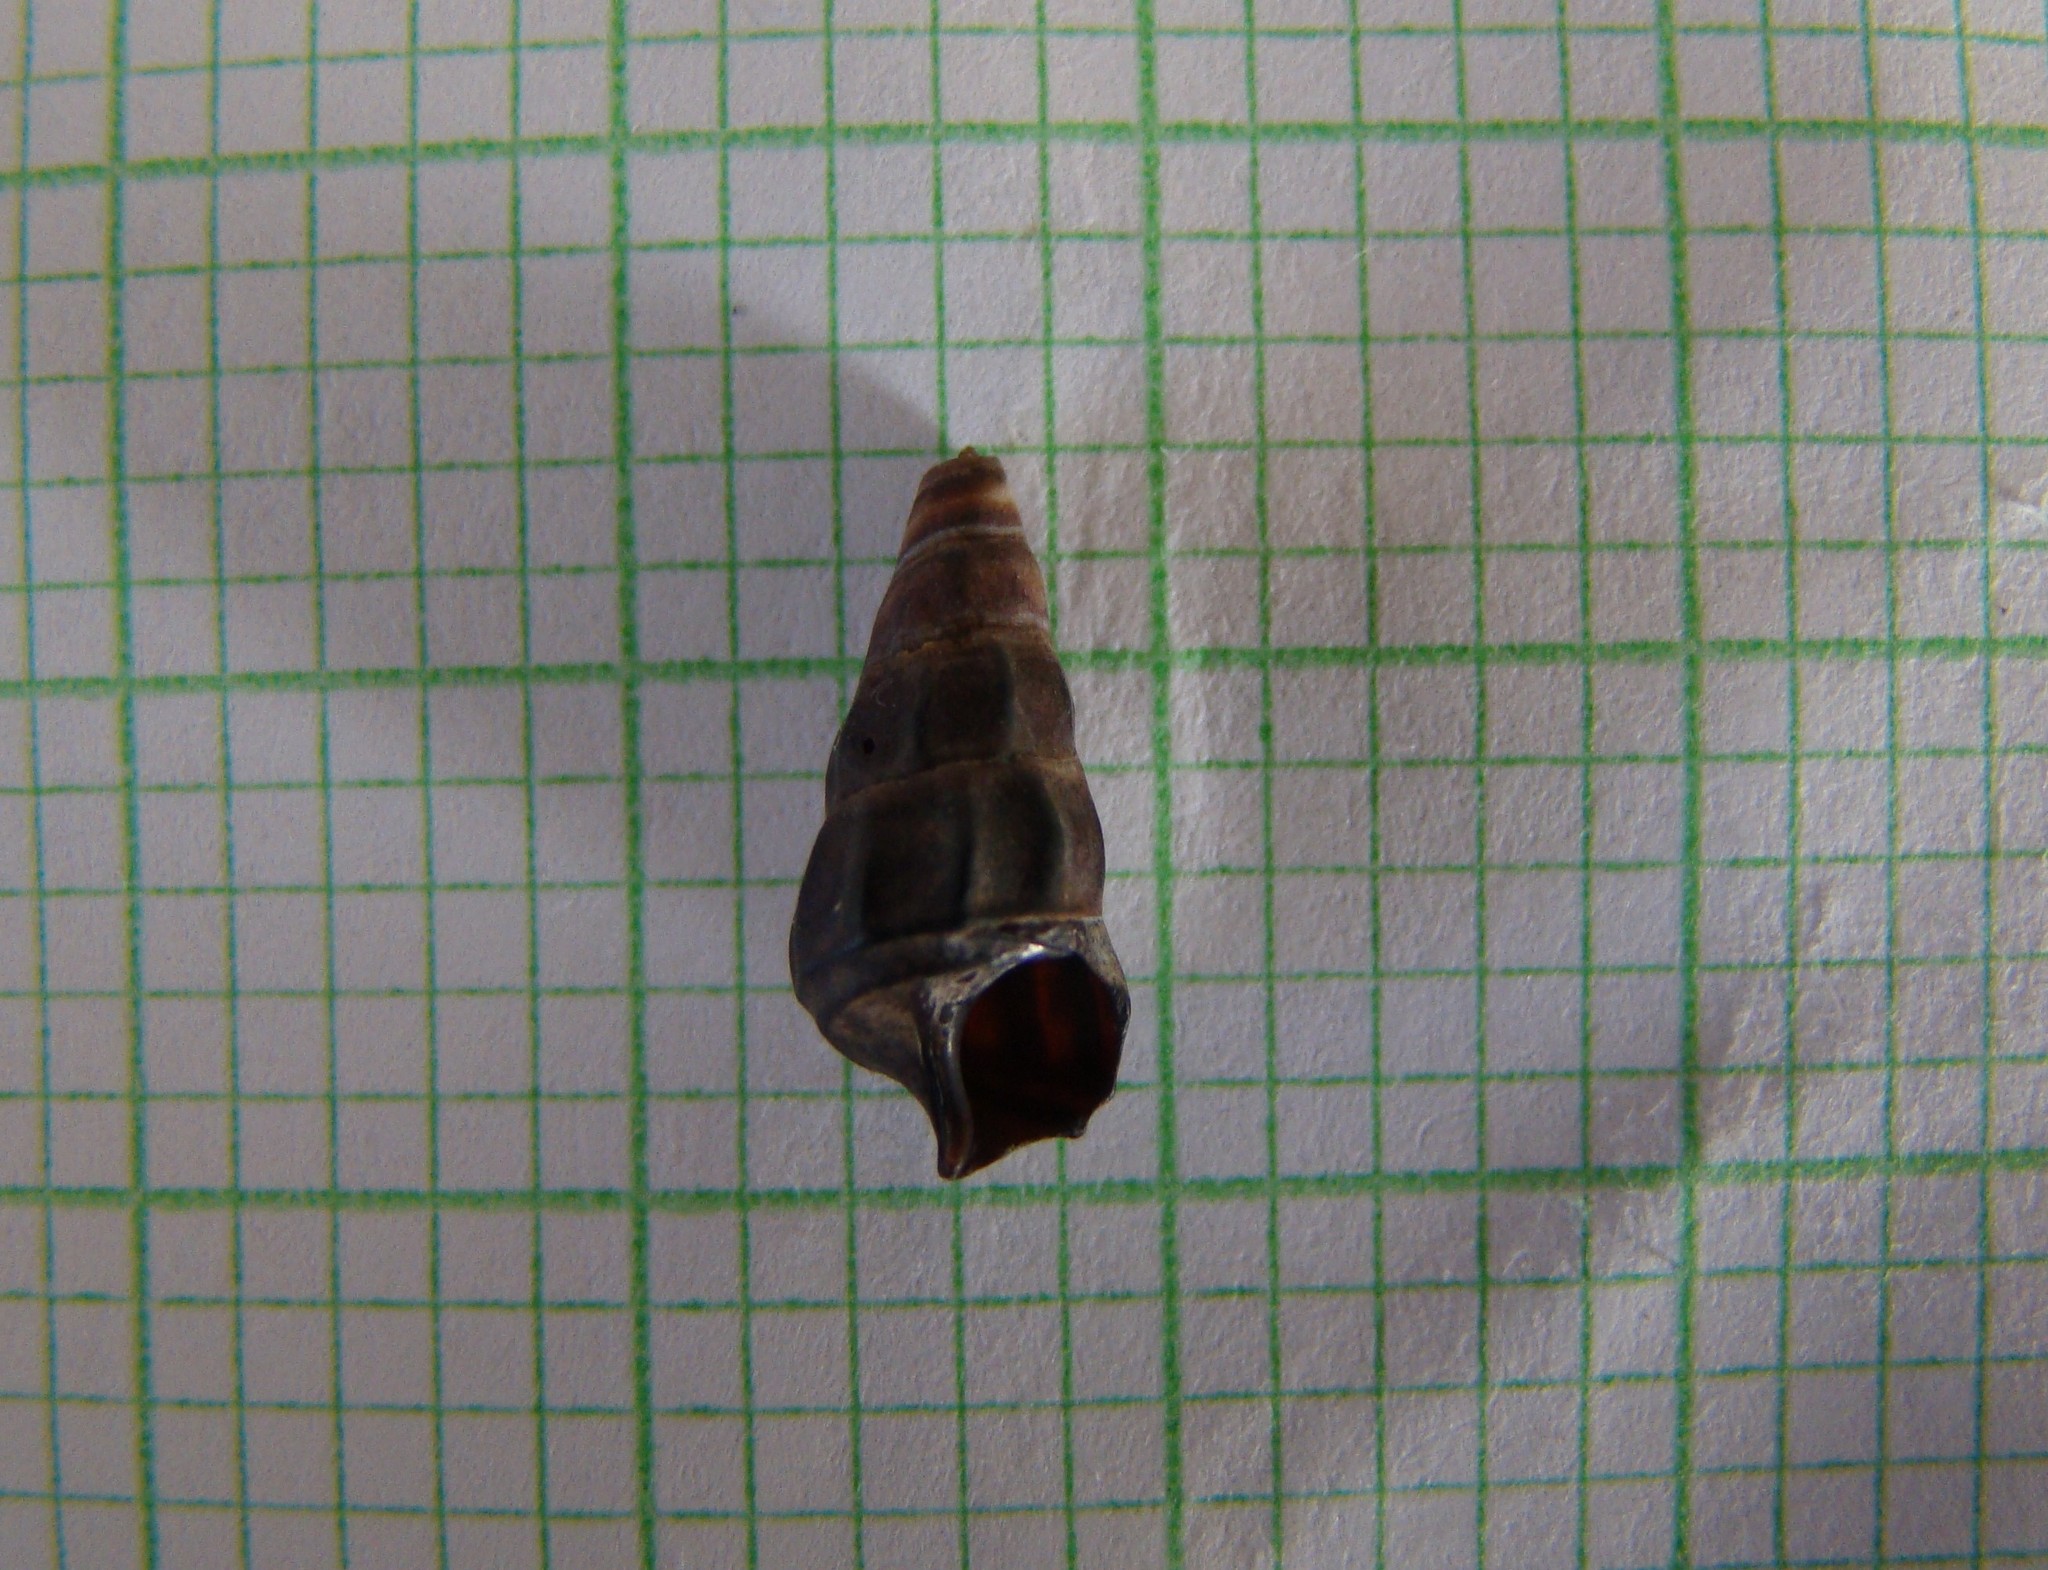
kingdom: Animalia
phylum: Mollusca
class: Gastropoda
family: Batillariidae
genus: Zeacumantus
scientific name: Zeacumantus lutulentus
